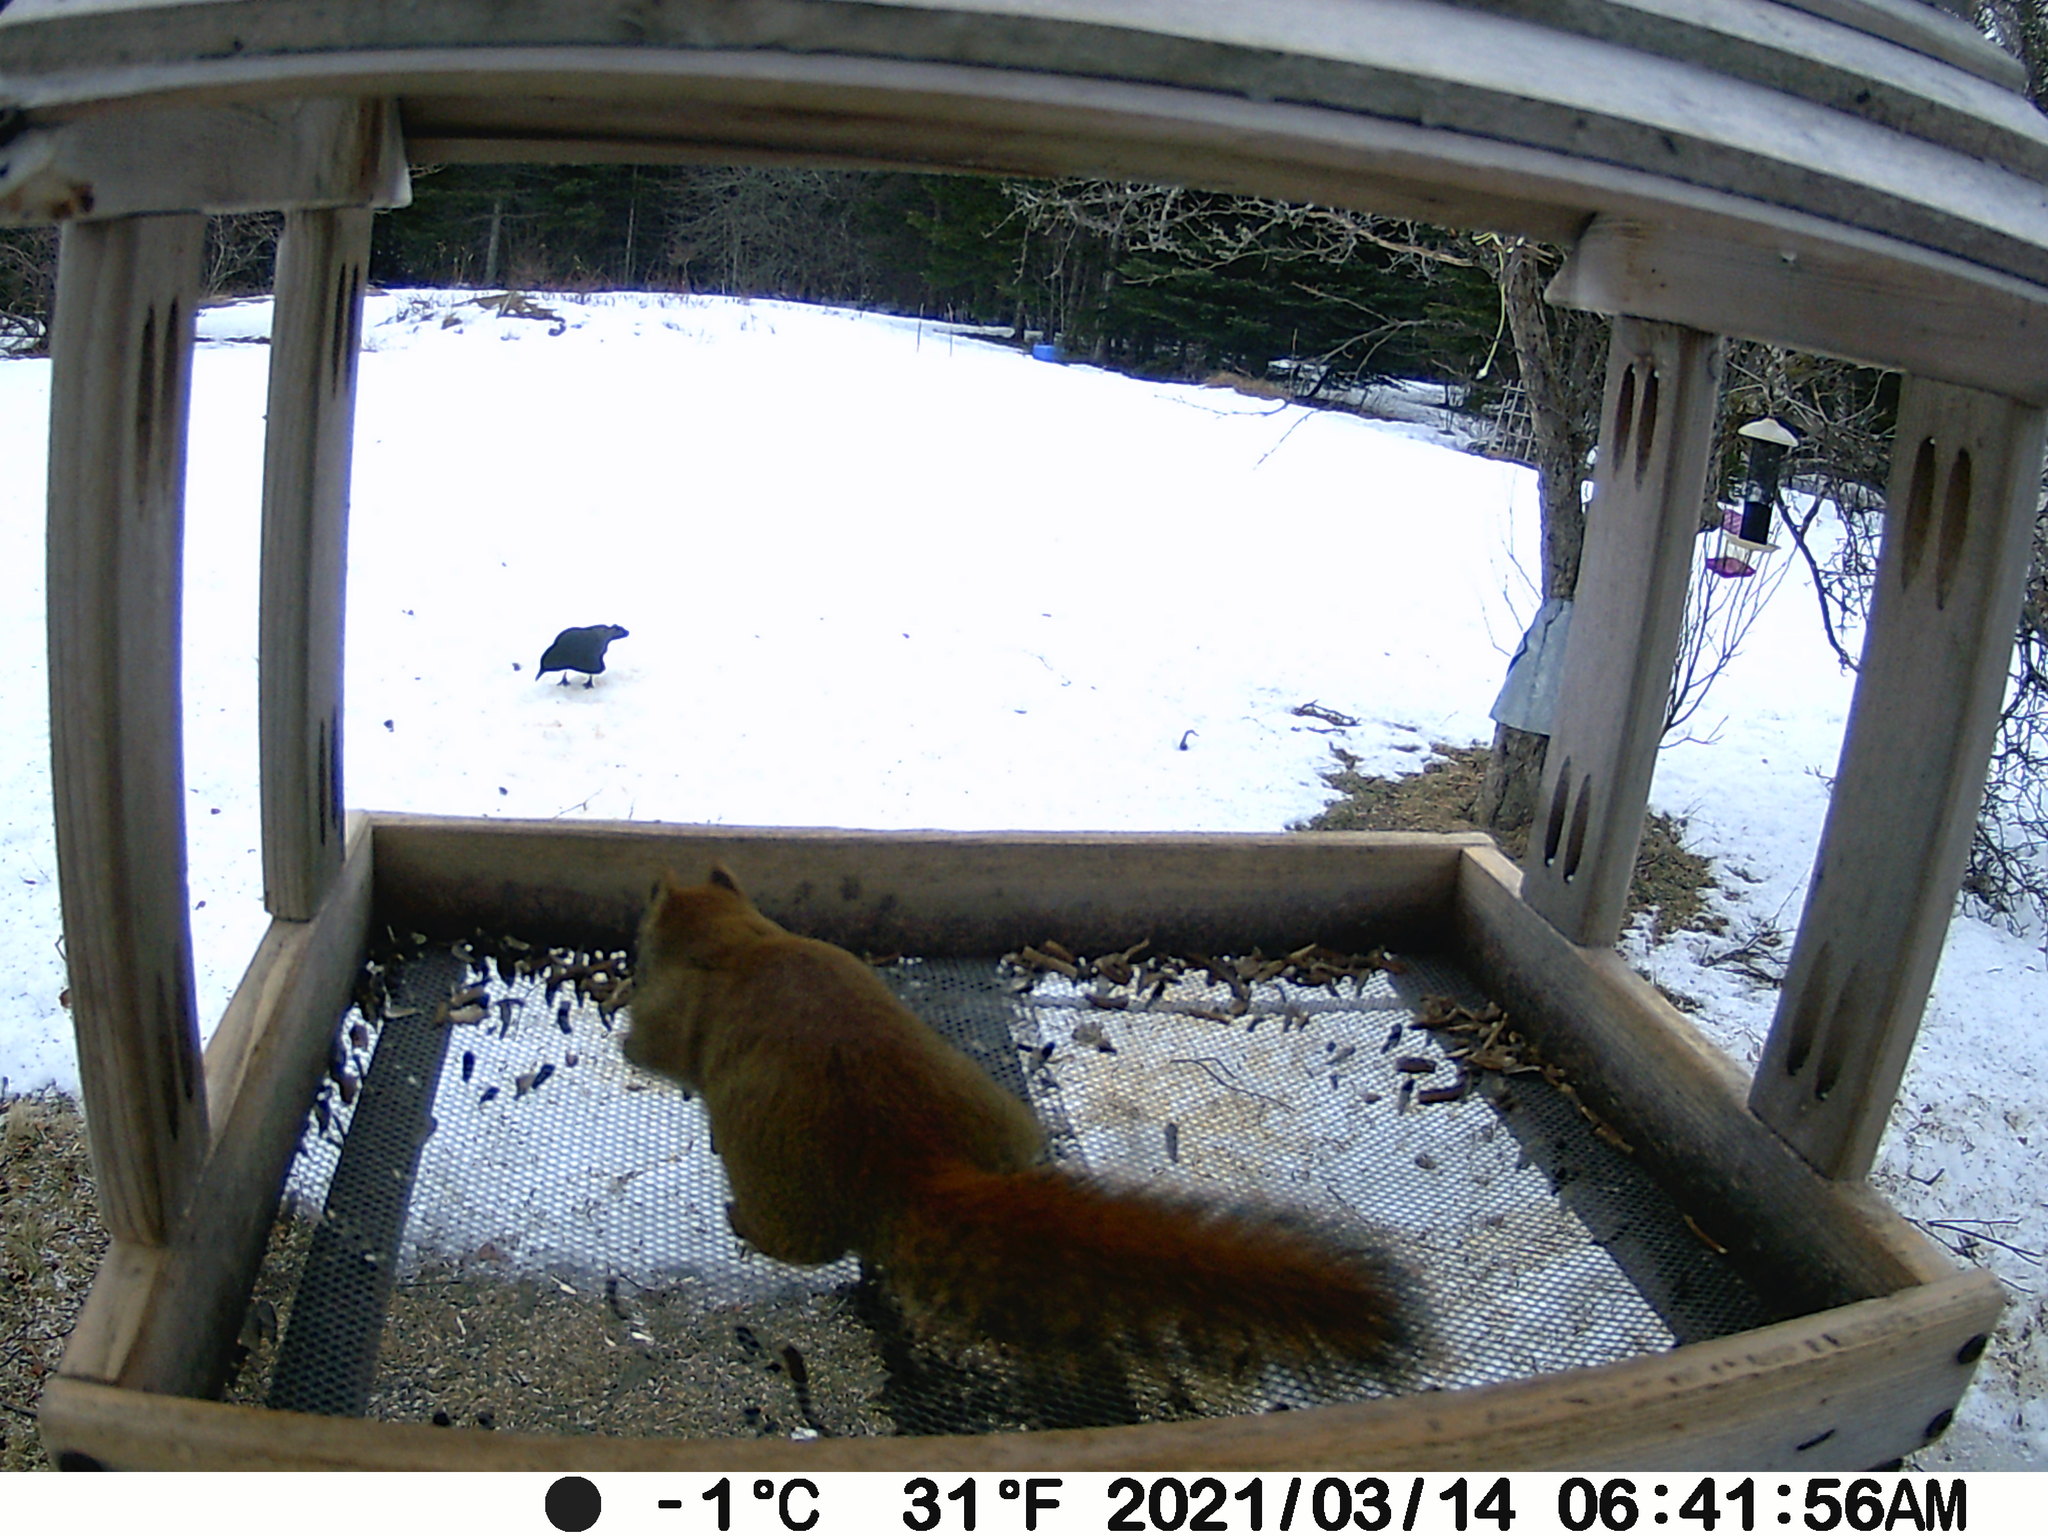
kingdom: Animalia
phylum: Chordata
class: Mammalia
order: Rodentia
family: Sciuridae
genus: Tamiasciurus
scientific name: Tamiasciurus hudsonicus
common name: Red squirrel
